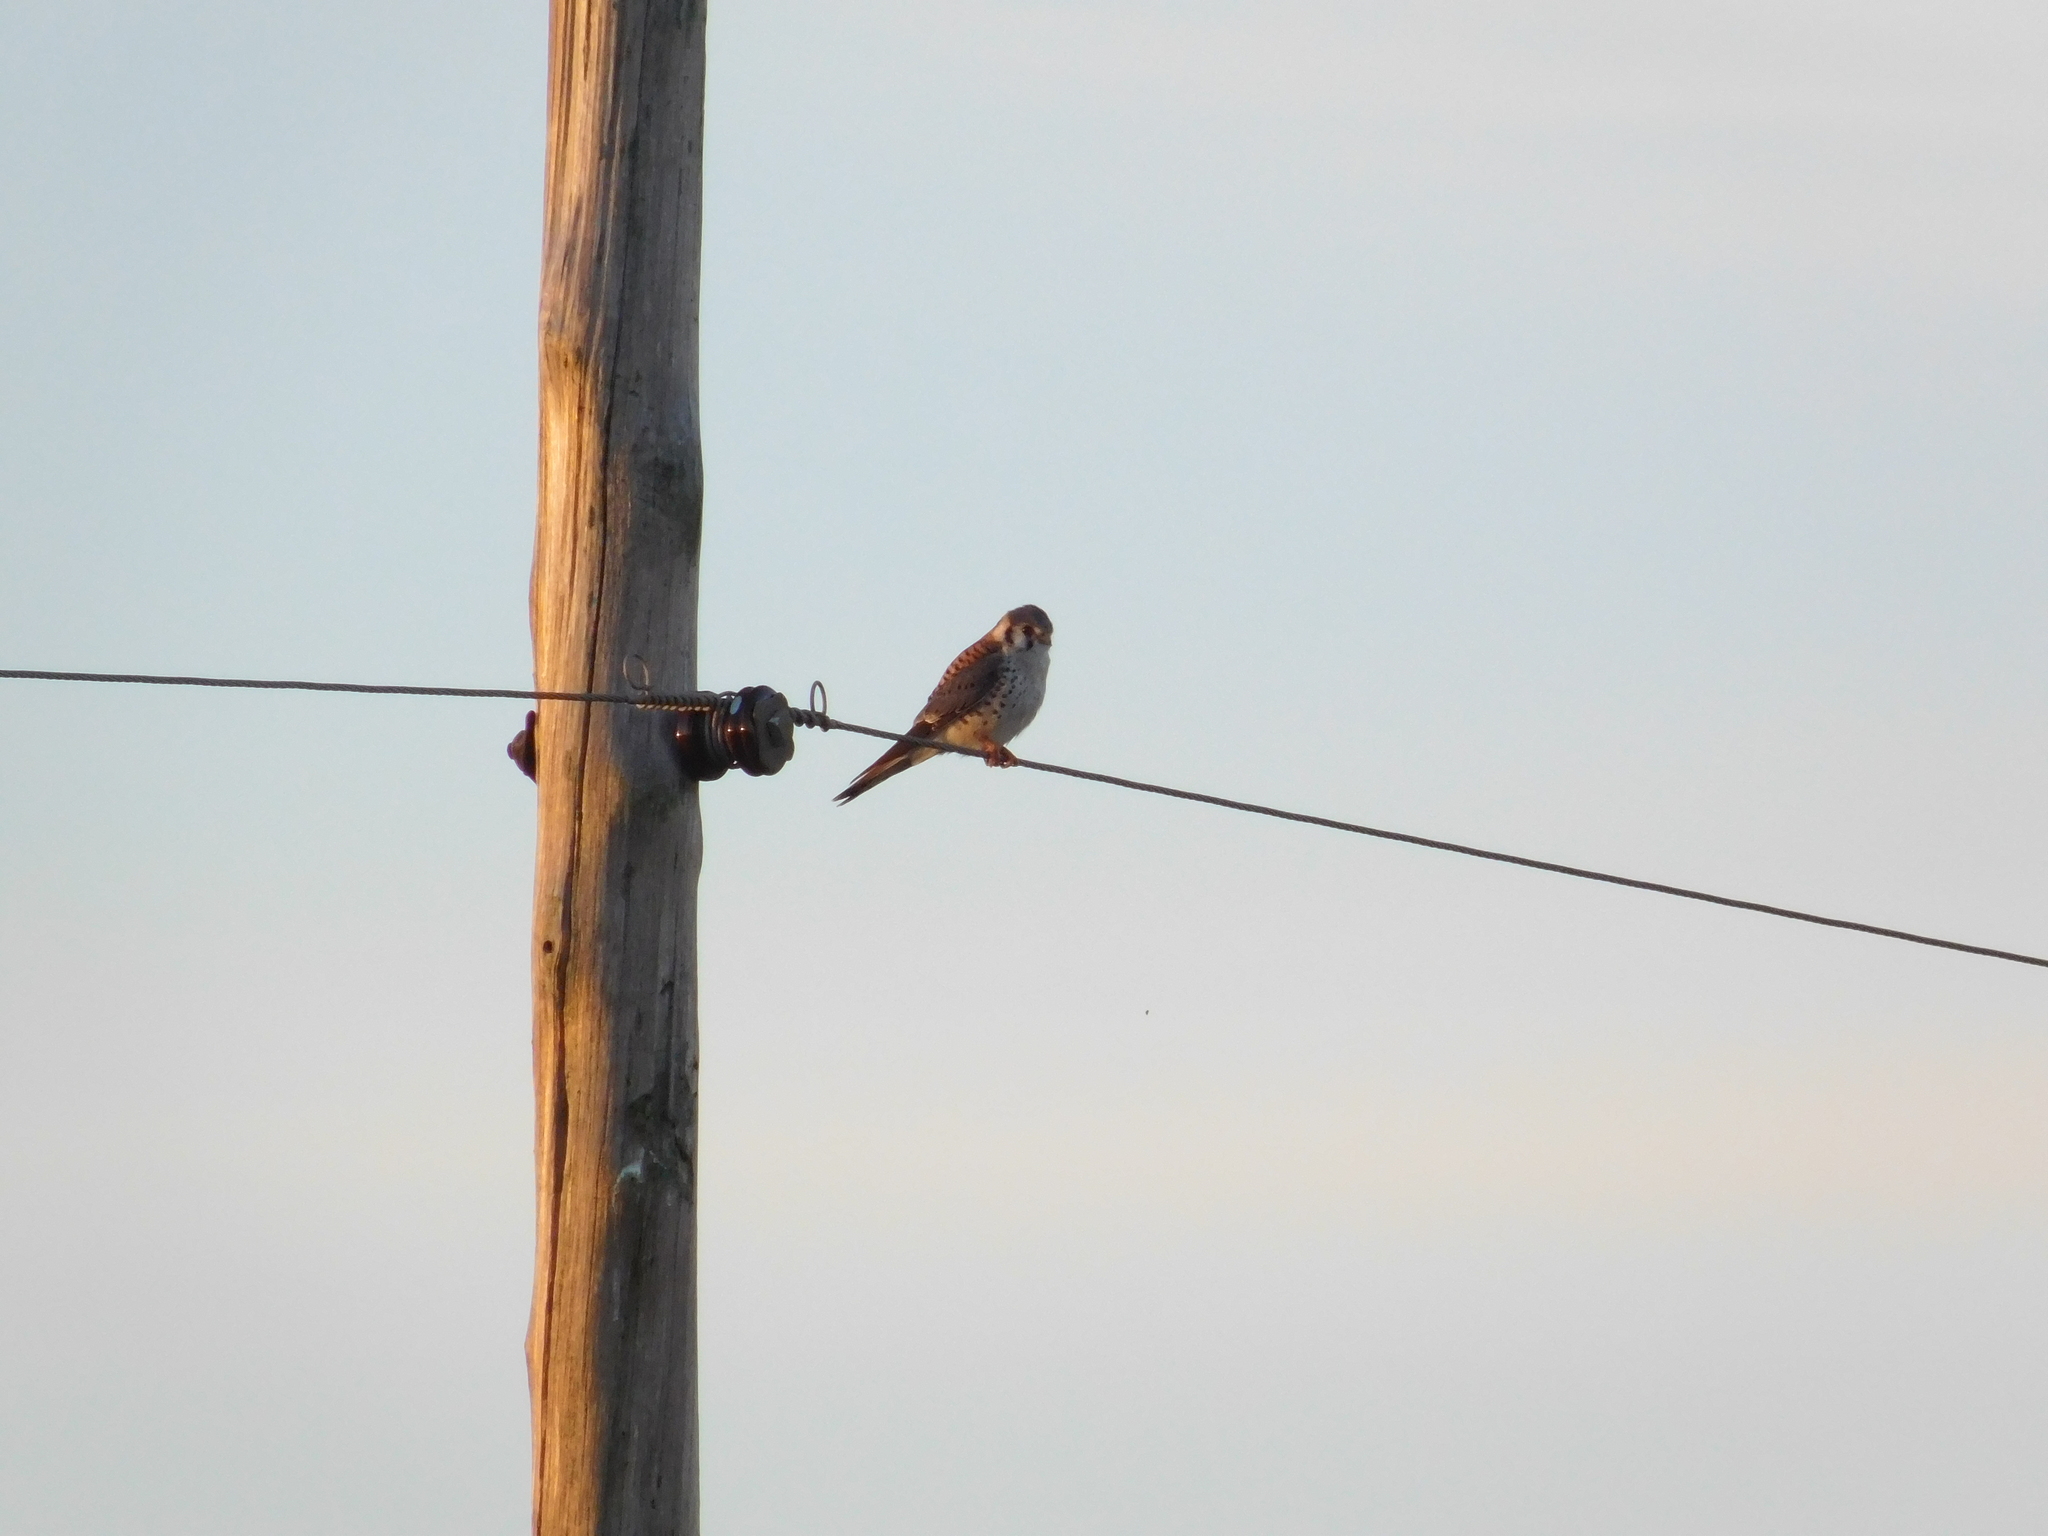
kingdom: Animalia
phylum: Chordata
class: Aves
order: Falconiformes
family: Falconidae
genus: Falco
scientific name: Falco sparverius
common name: American kestrel
